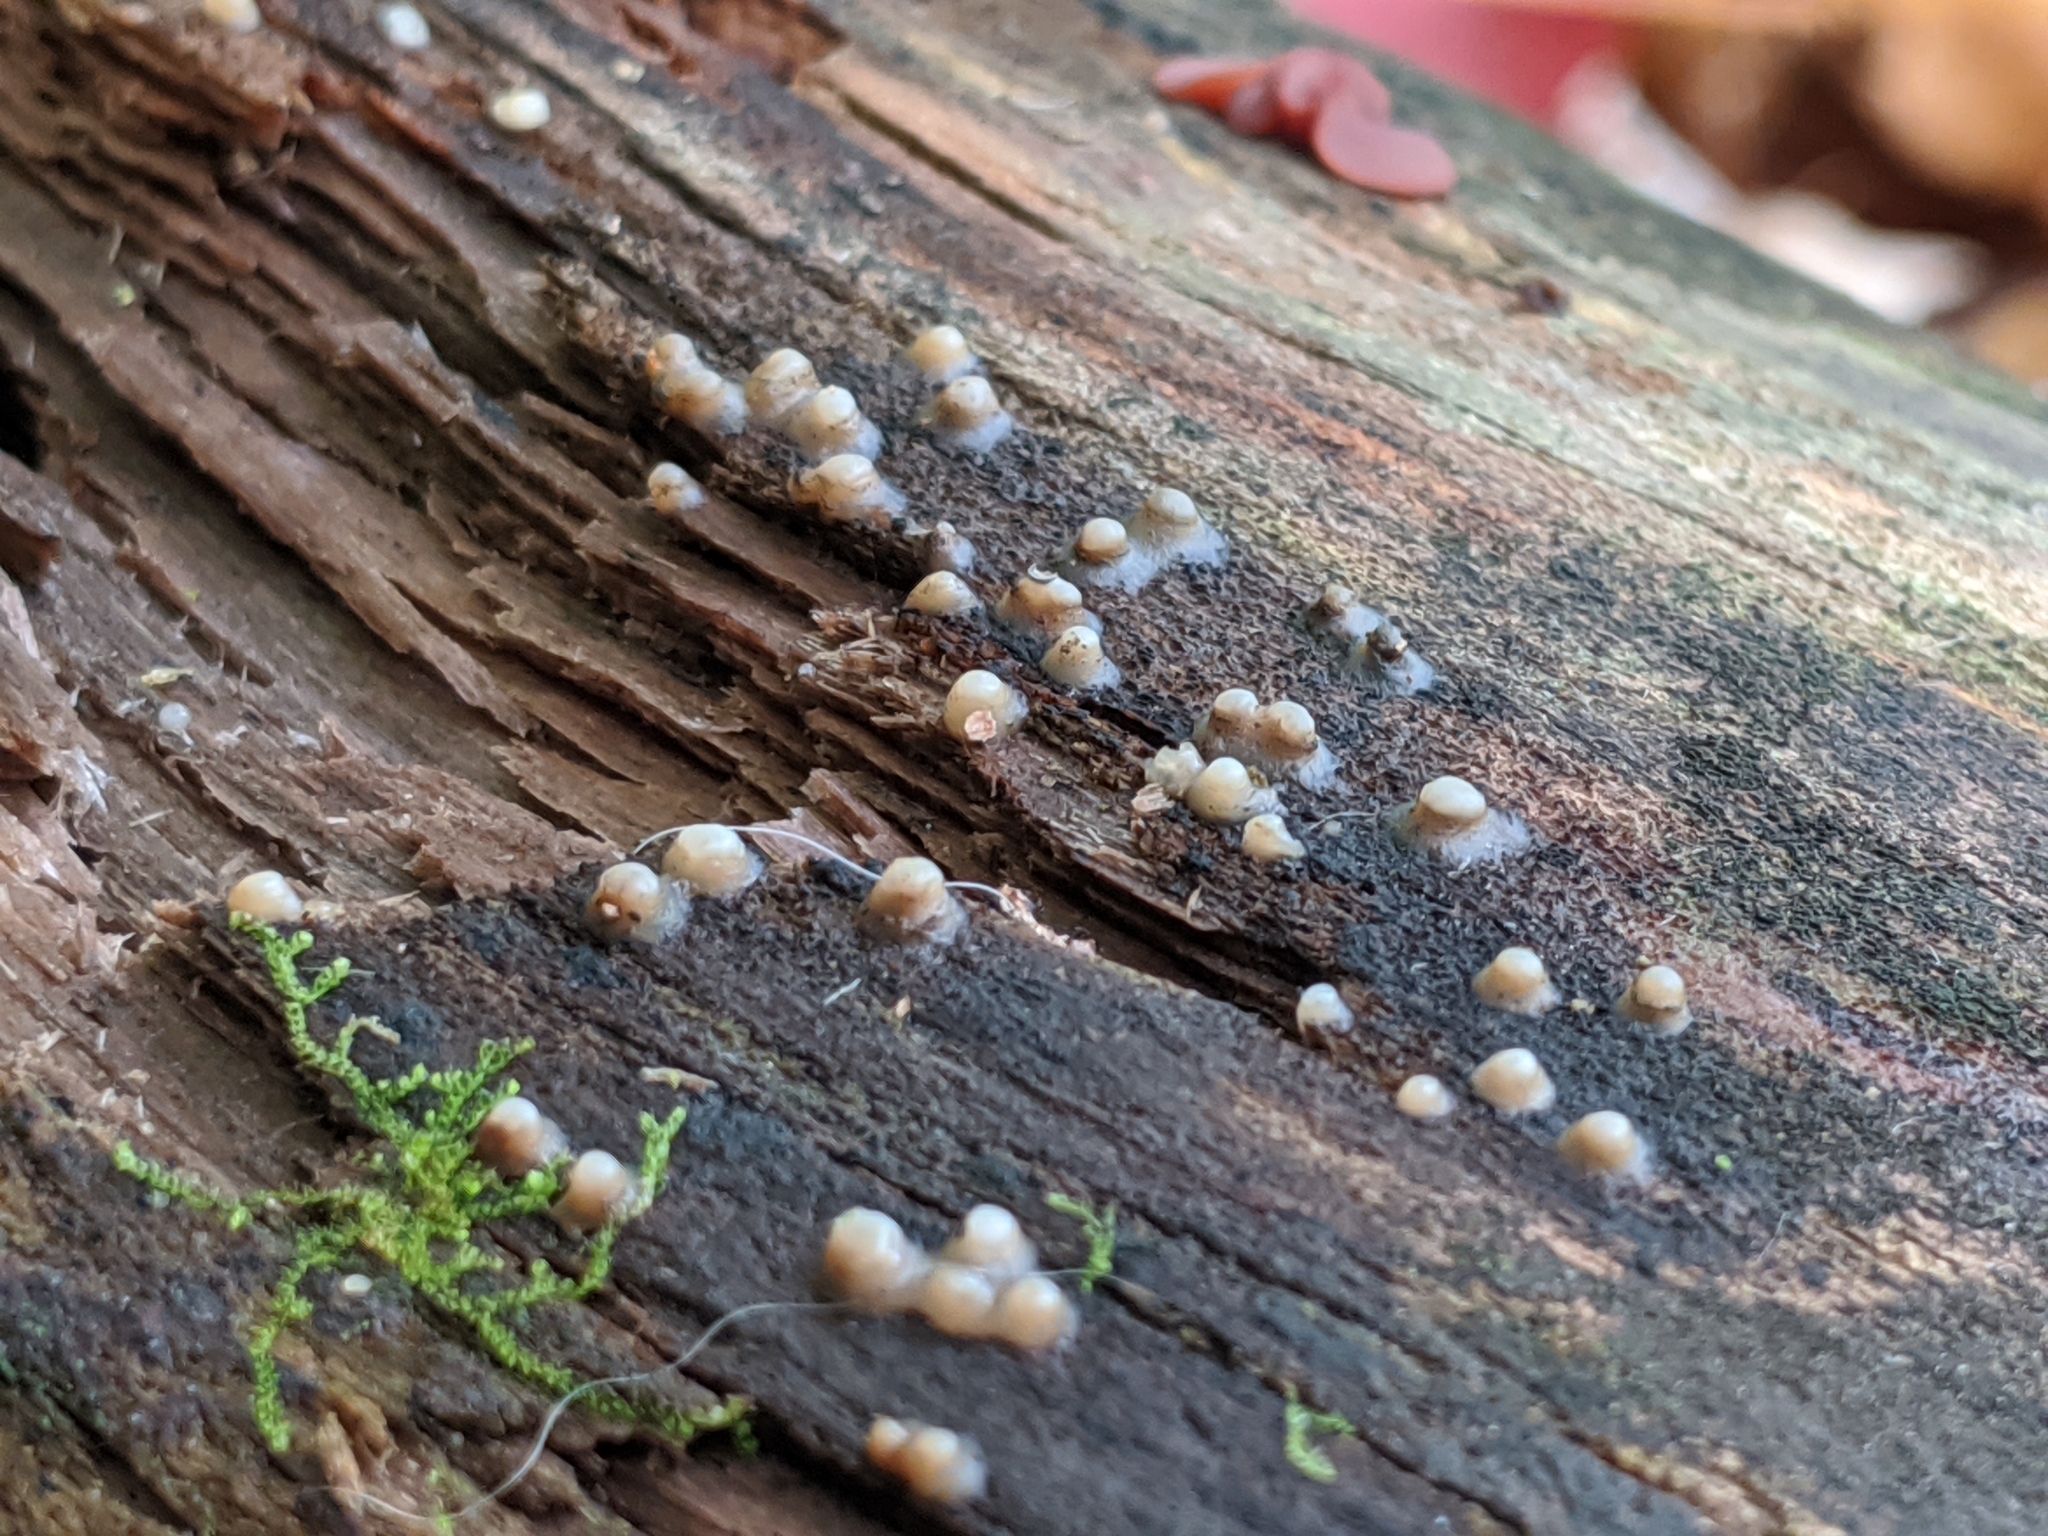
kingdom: Fungi
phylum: Basidiomycota
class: Atractiellomycetes
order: Atractiellales
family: Phleogenaceae
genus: Helicogloea
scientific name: Helicogloea compressa
